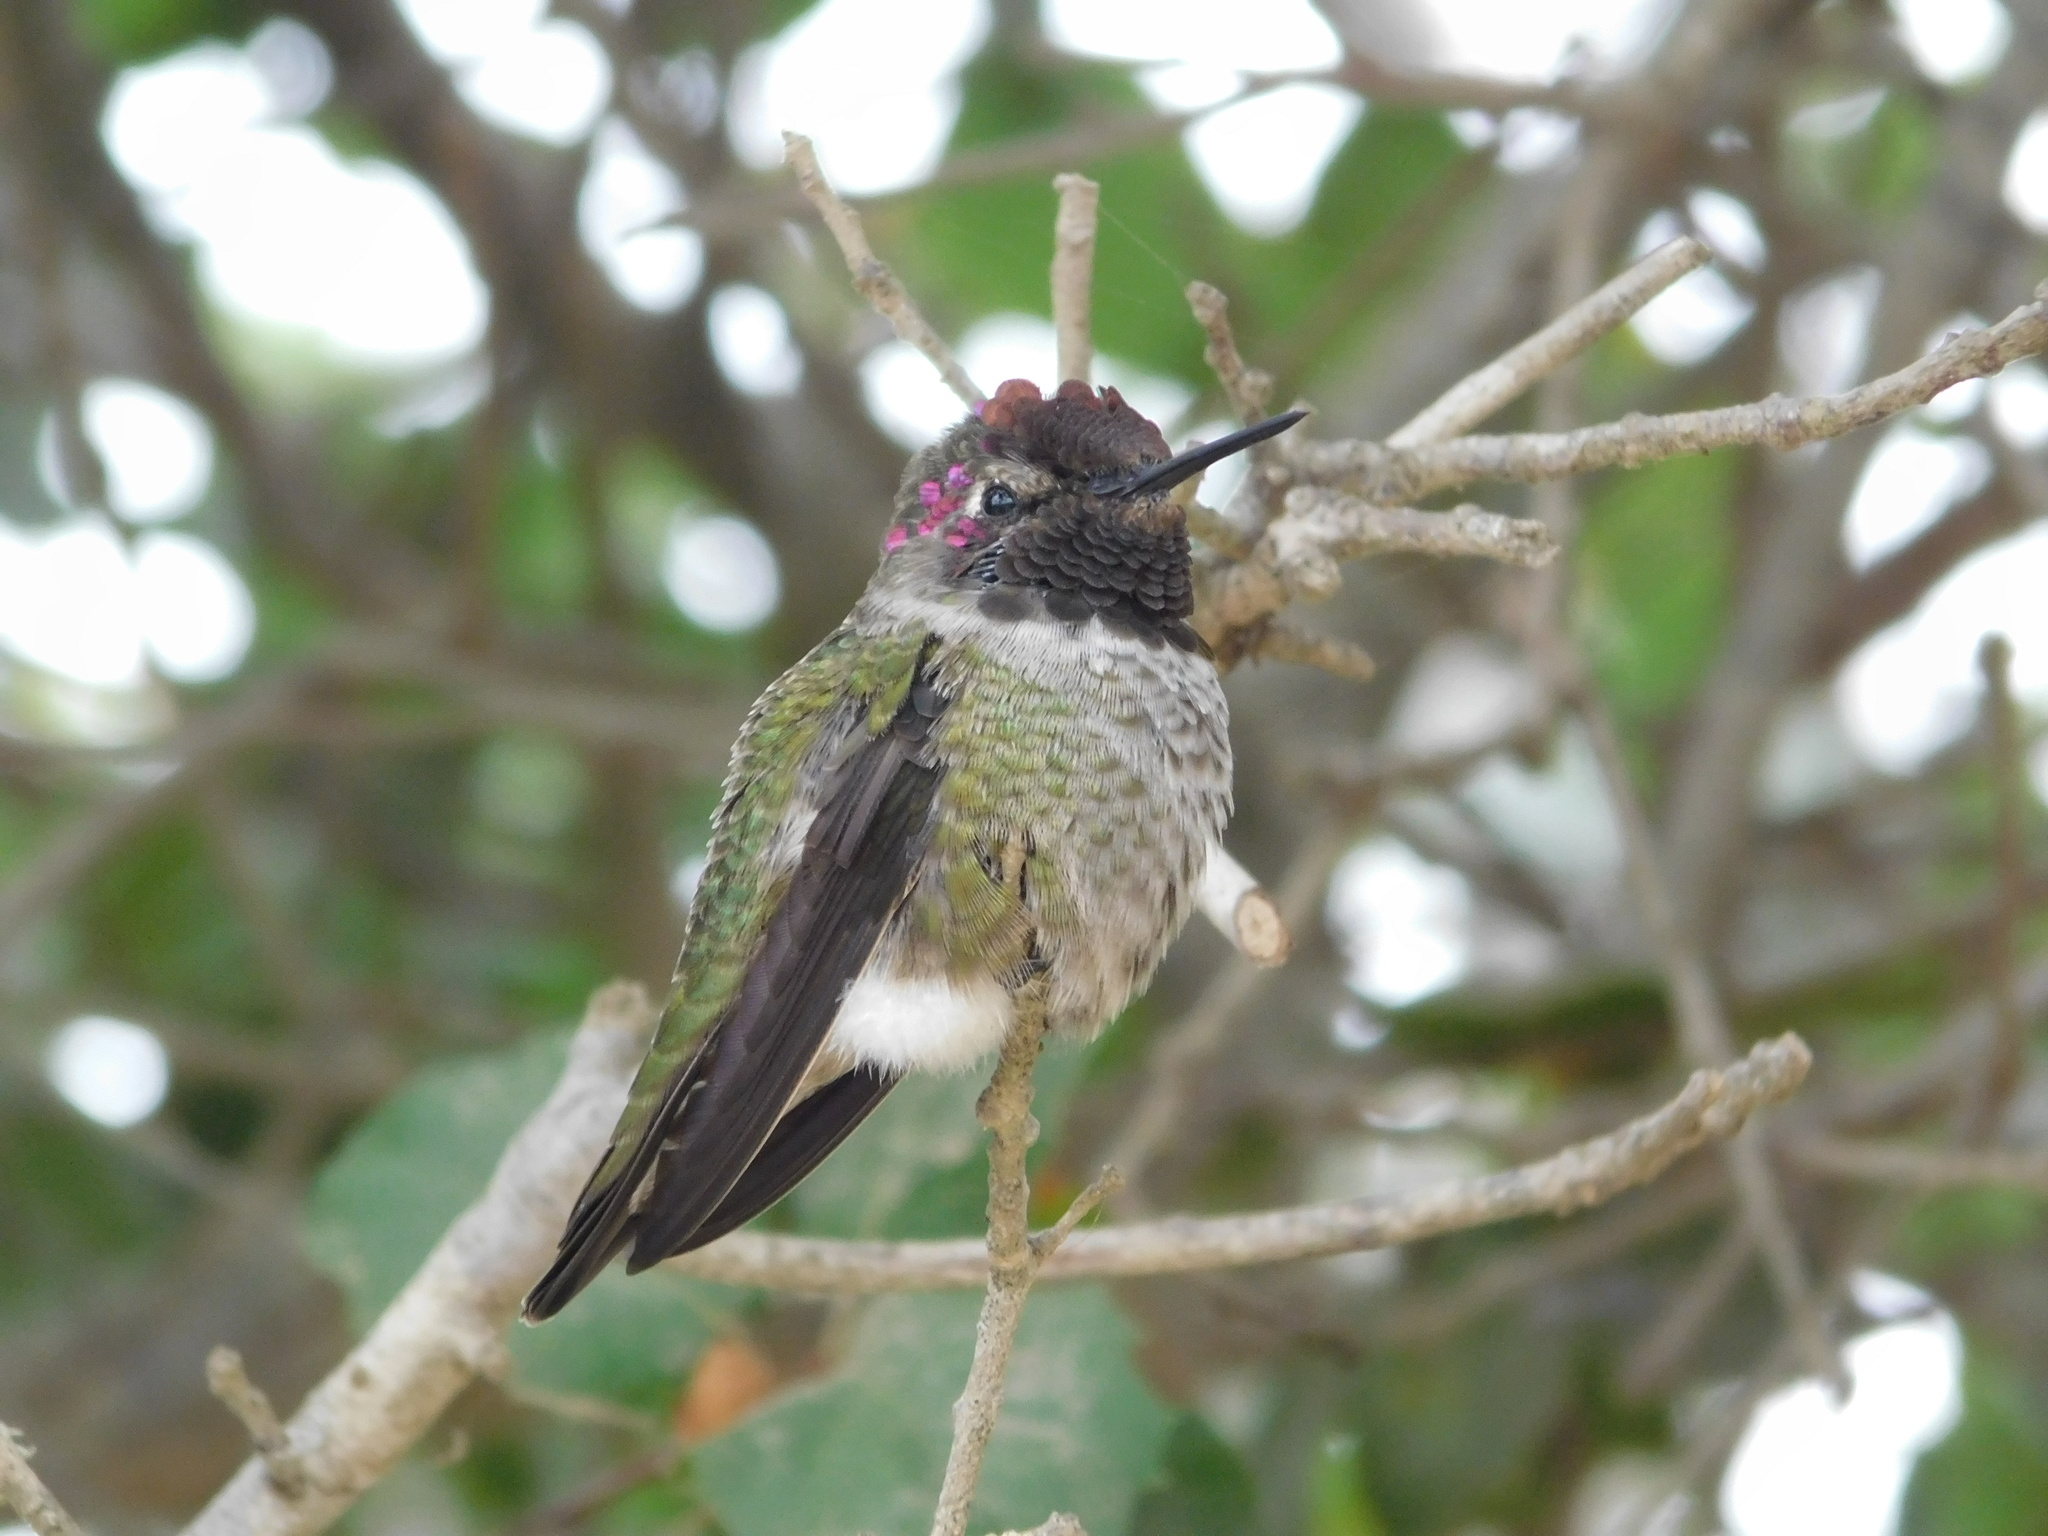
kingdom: Animalia
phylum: Chordata
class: Aves
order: Apodiformes
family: Trochilidae
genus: Calypte
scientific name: Calypte anna
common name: Anna's hummingbird
